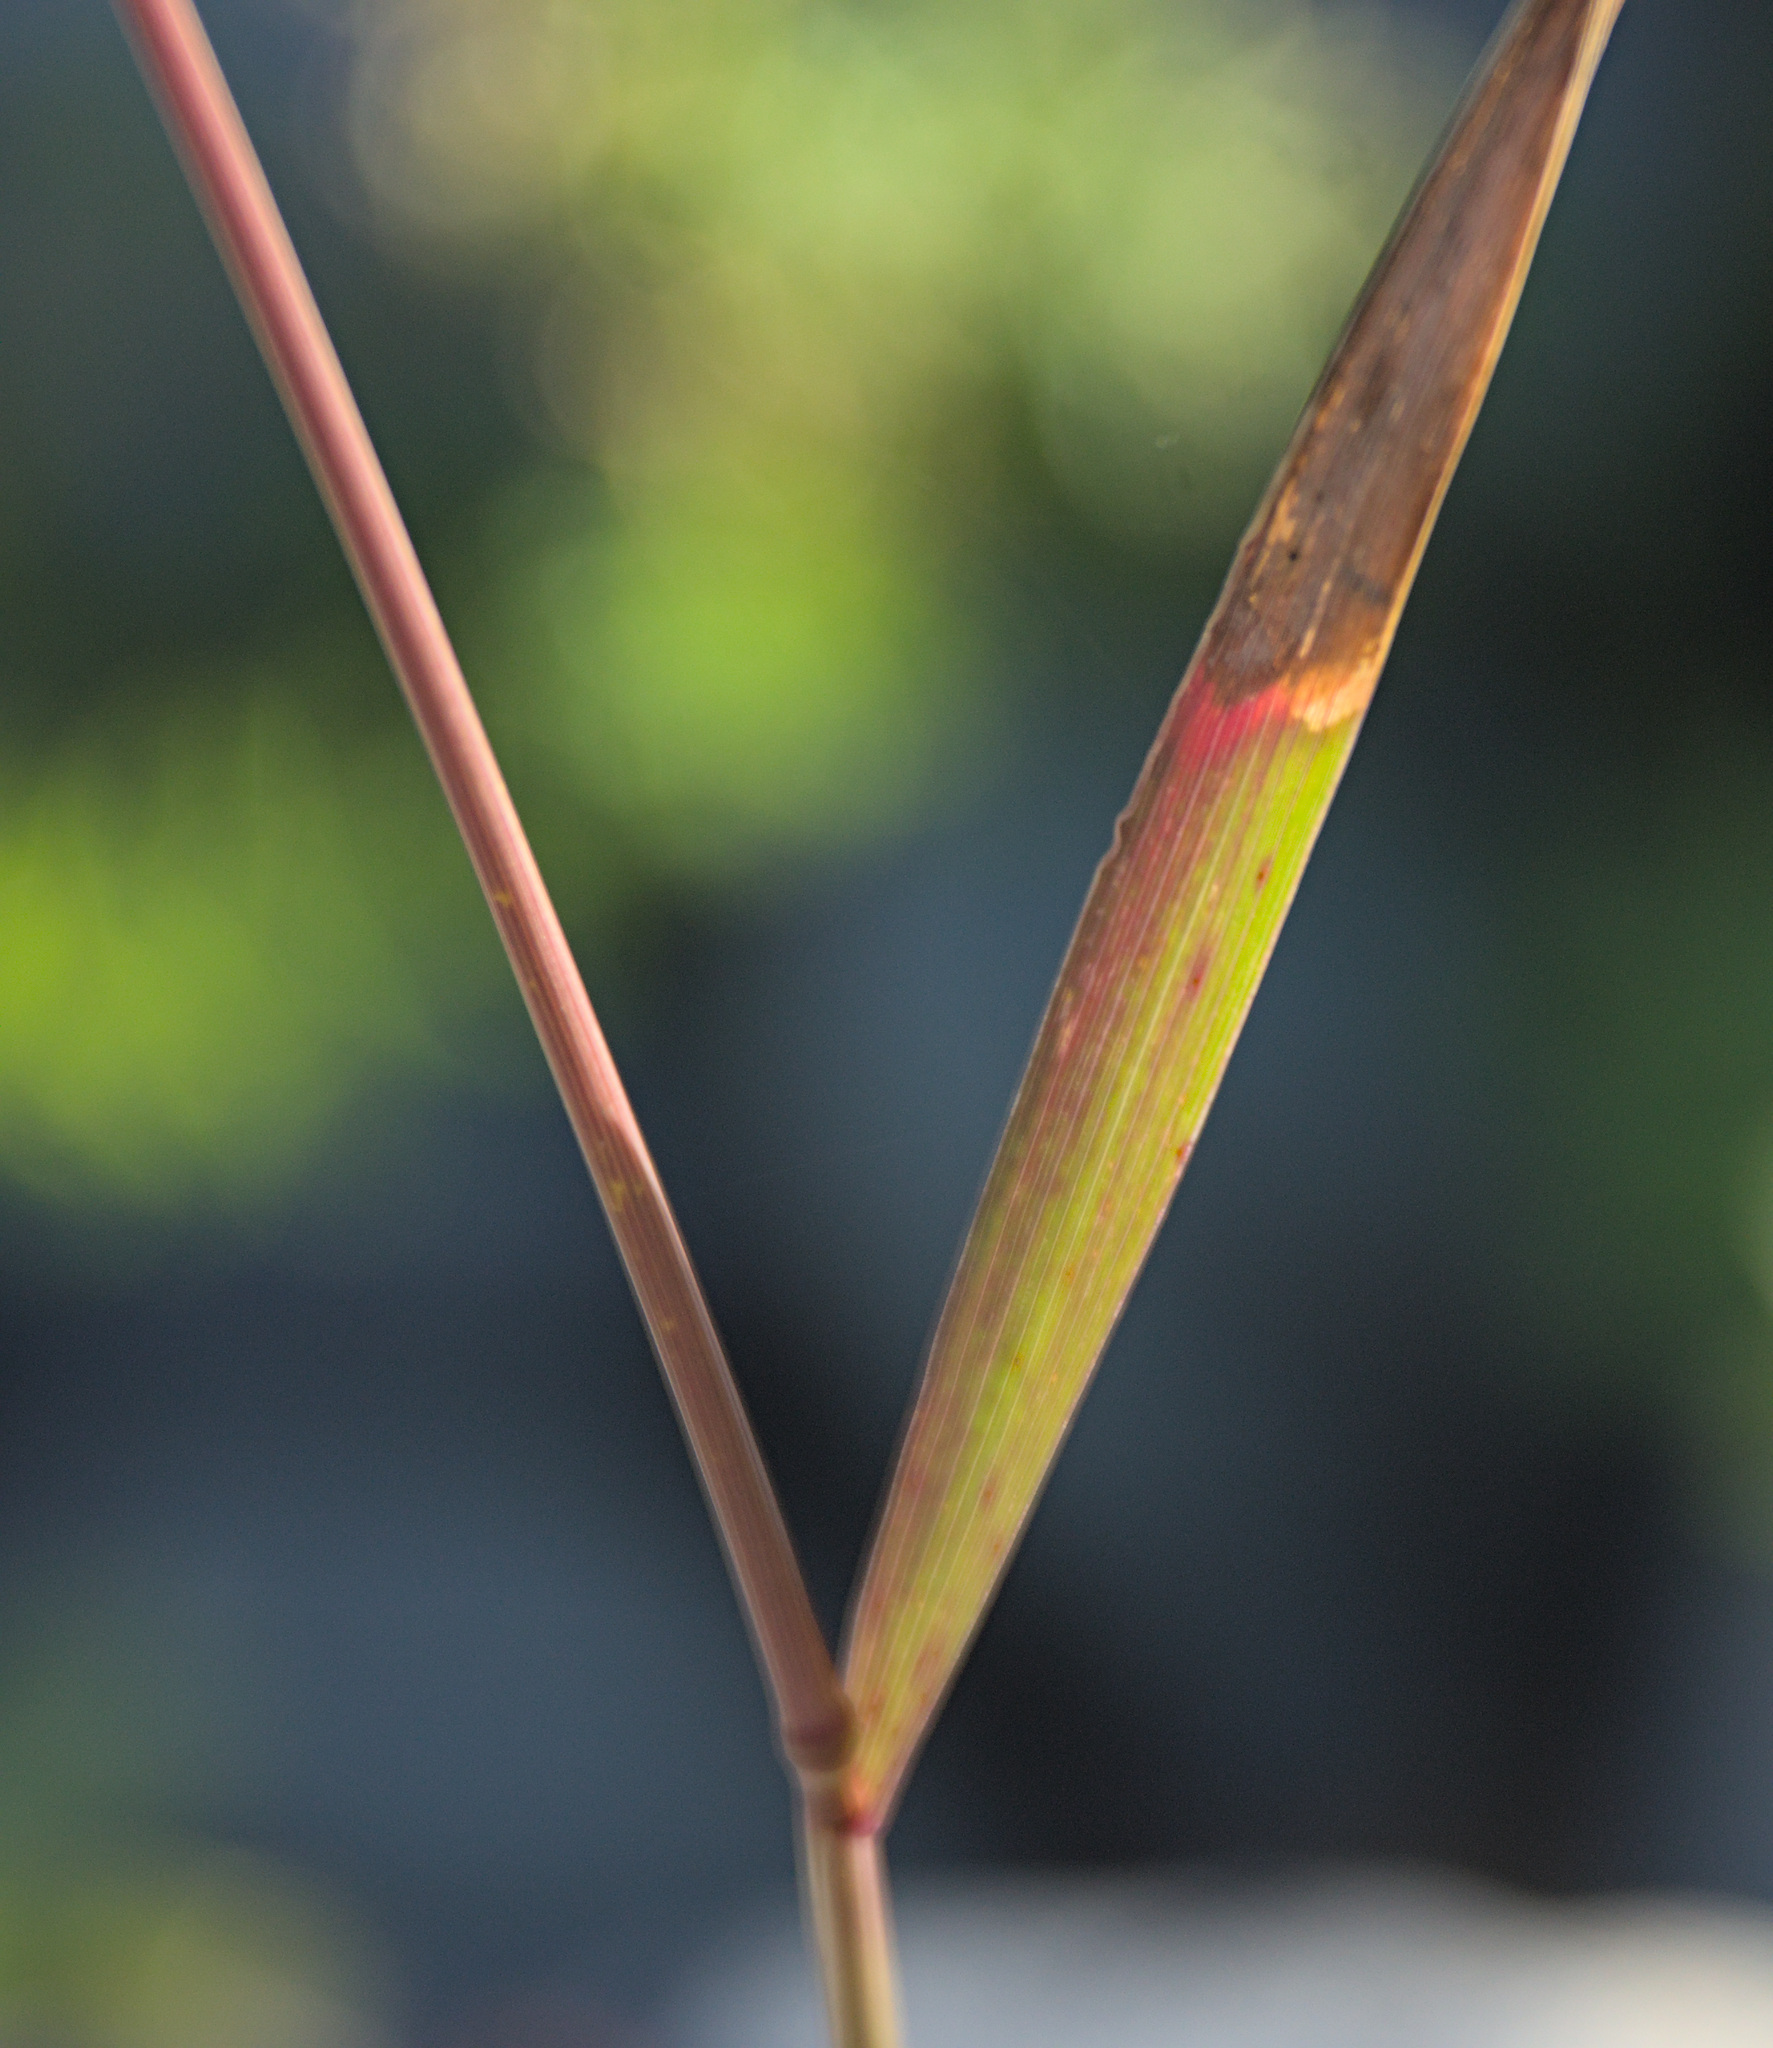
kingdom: Plantae
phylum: Tracheophyta
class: Liliopsida
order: Poales
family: Poaceae
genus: Elymus
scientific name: Elymus sibiricus
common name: Siberian wildrye
